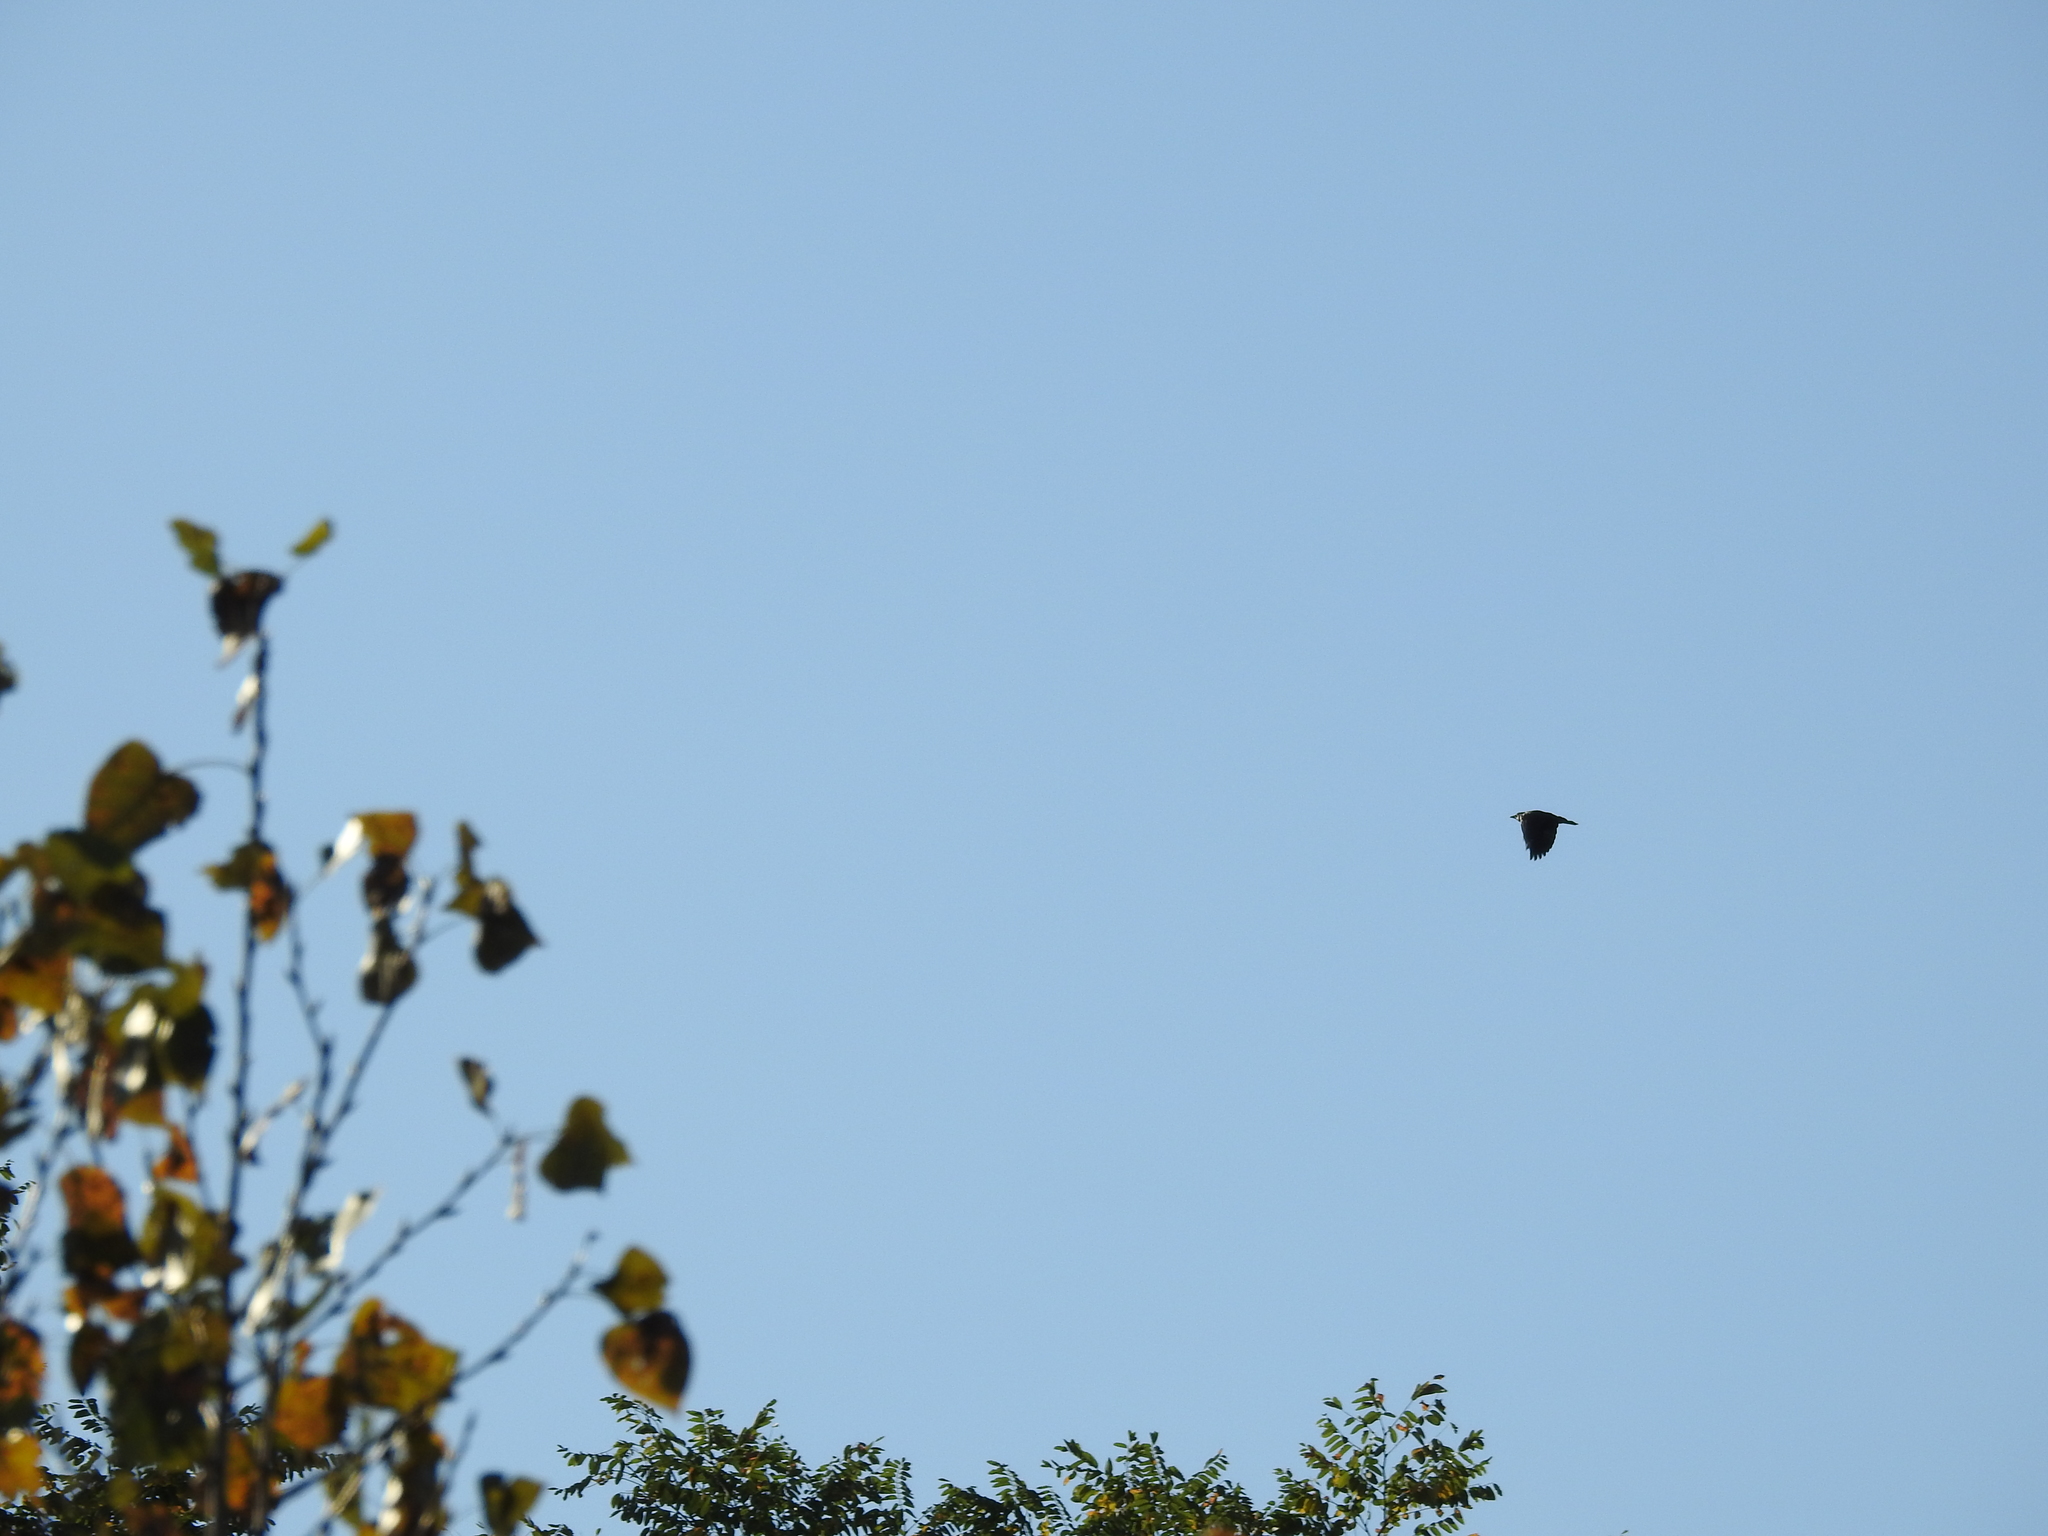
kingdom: Animalia
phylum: Chordata
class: Aves
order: Passeriformes
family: Corvidae
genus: Cyanocitta
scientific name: Cyanocitta cristata
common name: Blue jay
